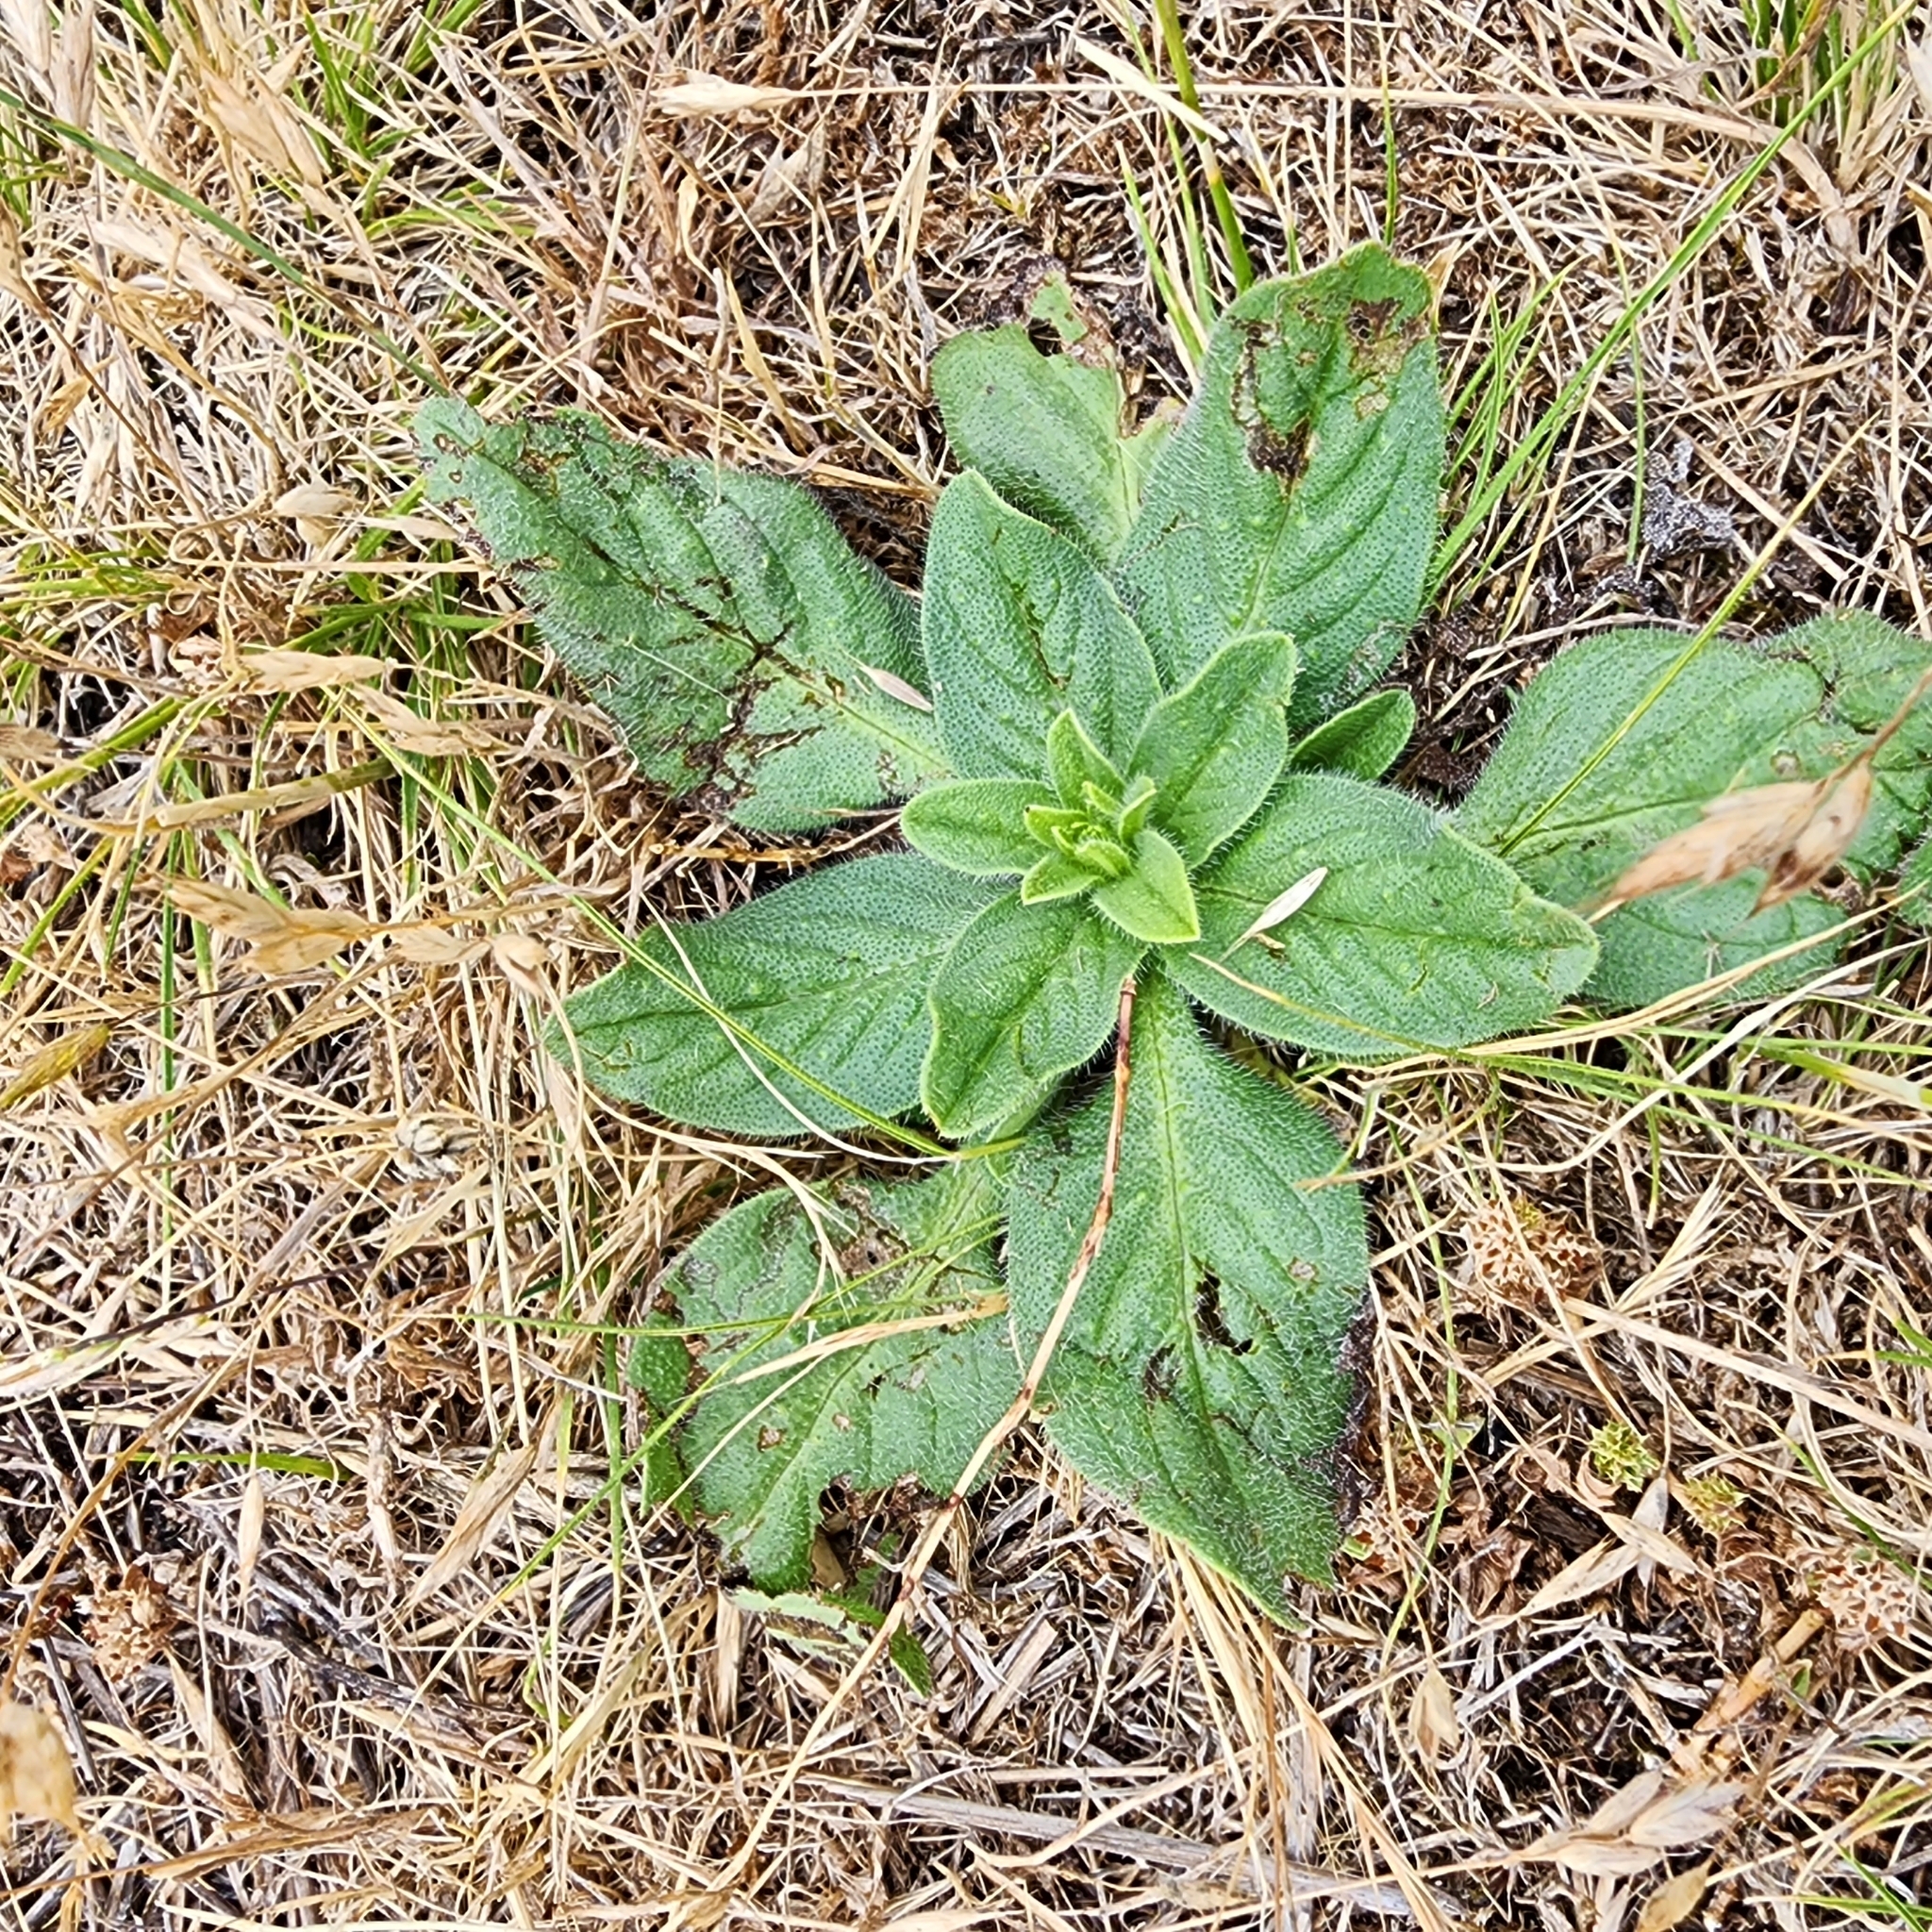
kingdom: Plantae
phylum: Tracheophyta
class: Magnoliopsida
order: Boraginales
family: Boraginaceae
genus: Echium
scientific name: Echium plantagineum
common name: Purple viper's-bugloss
